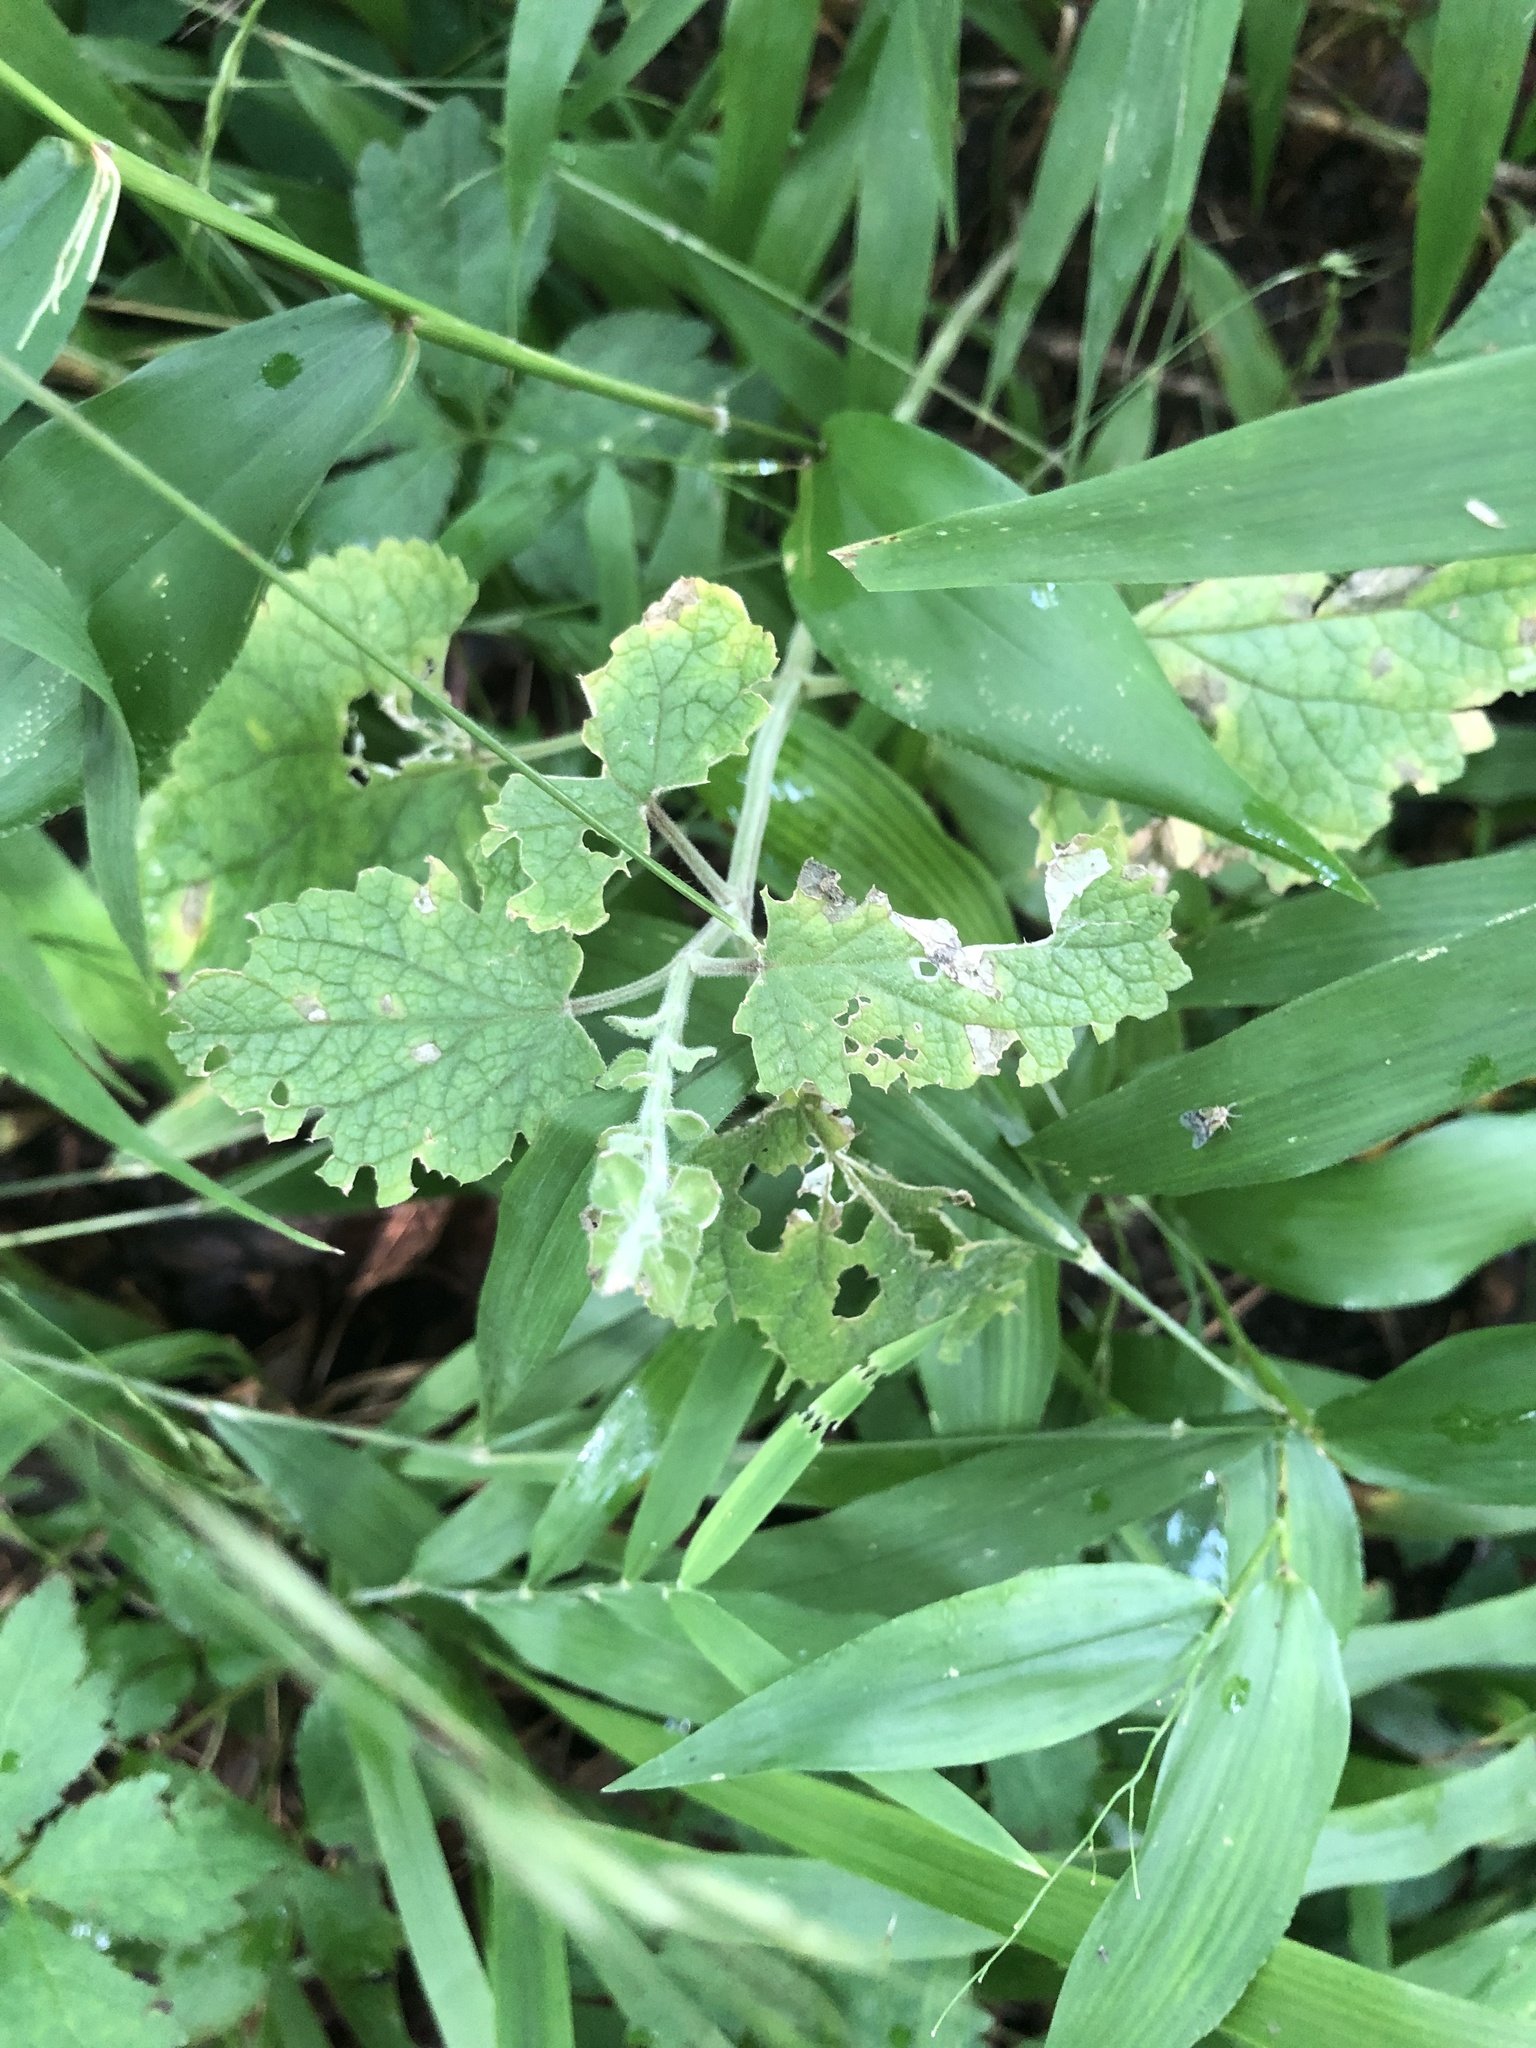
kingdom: Plantae
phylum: Tracheophyta
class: Magnoliopsida
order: Lamiales
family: Lamiaceae
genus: Scutellaria
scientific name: Scutellaria ovata
